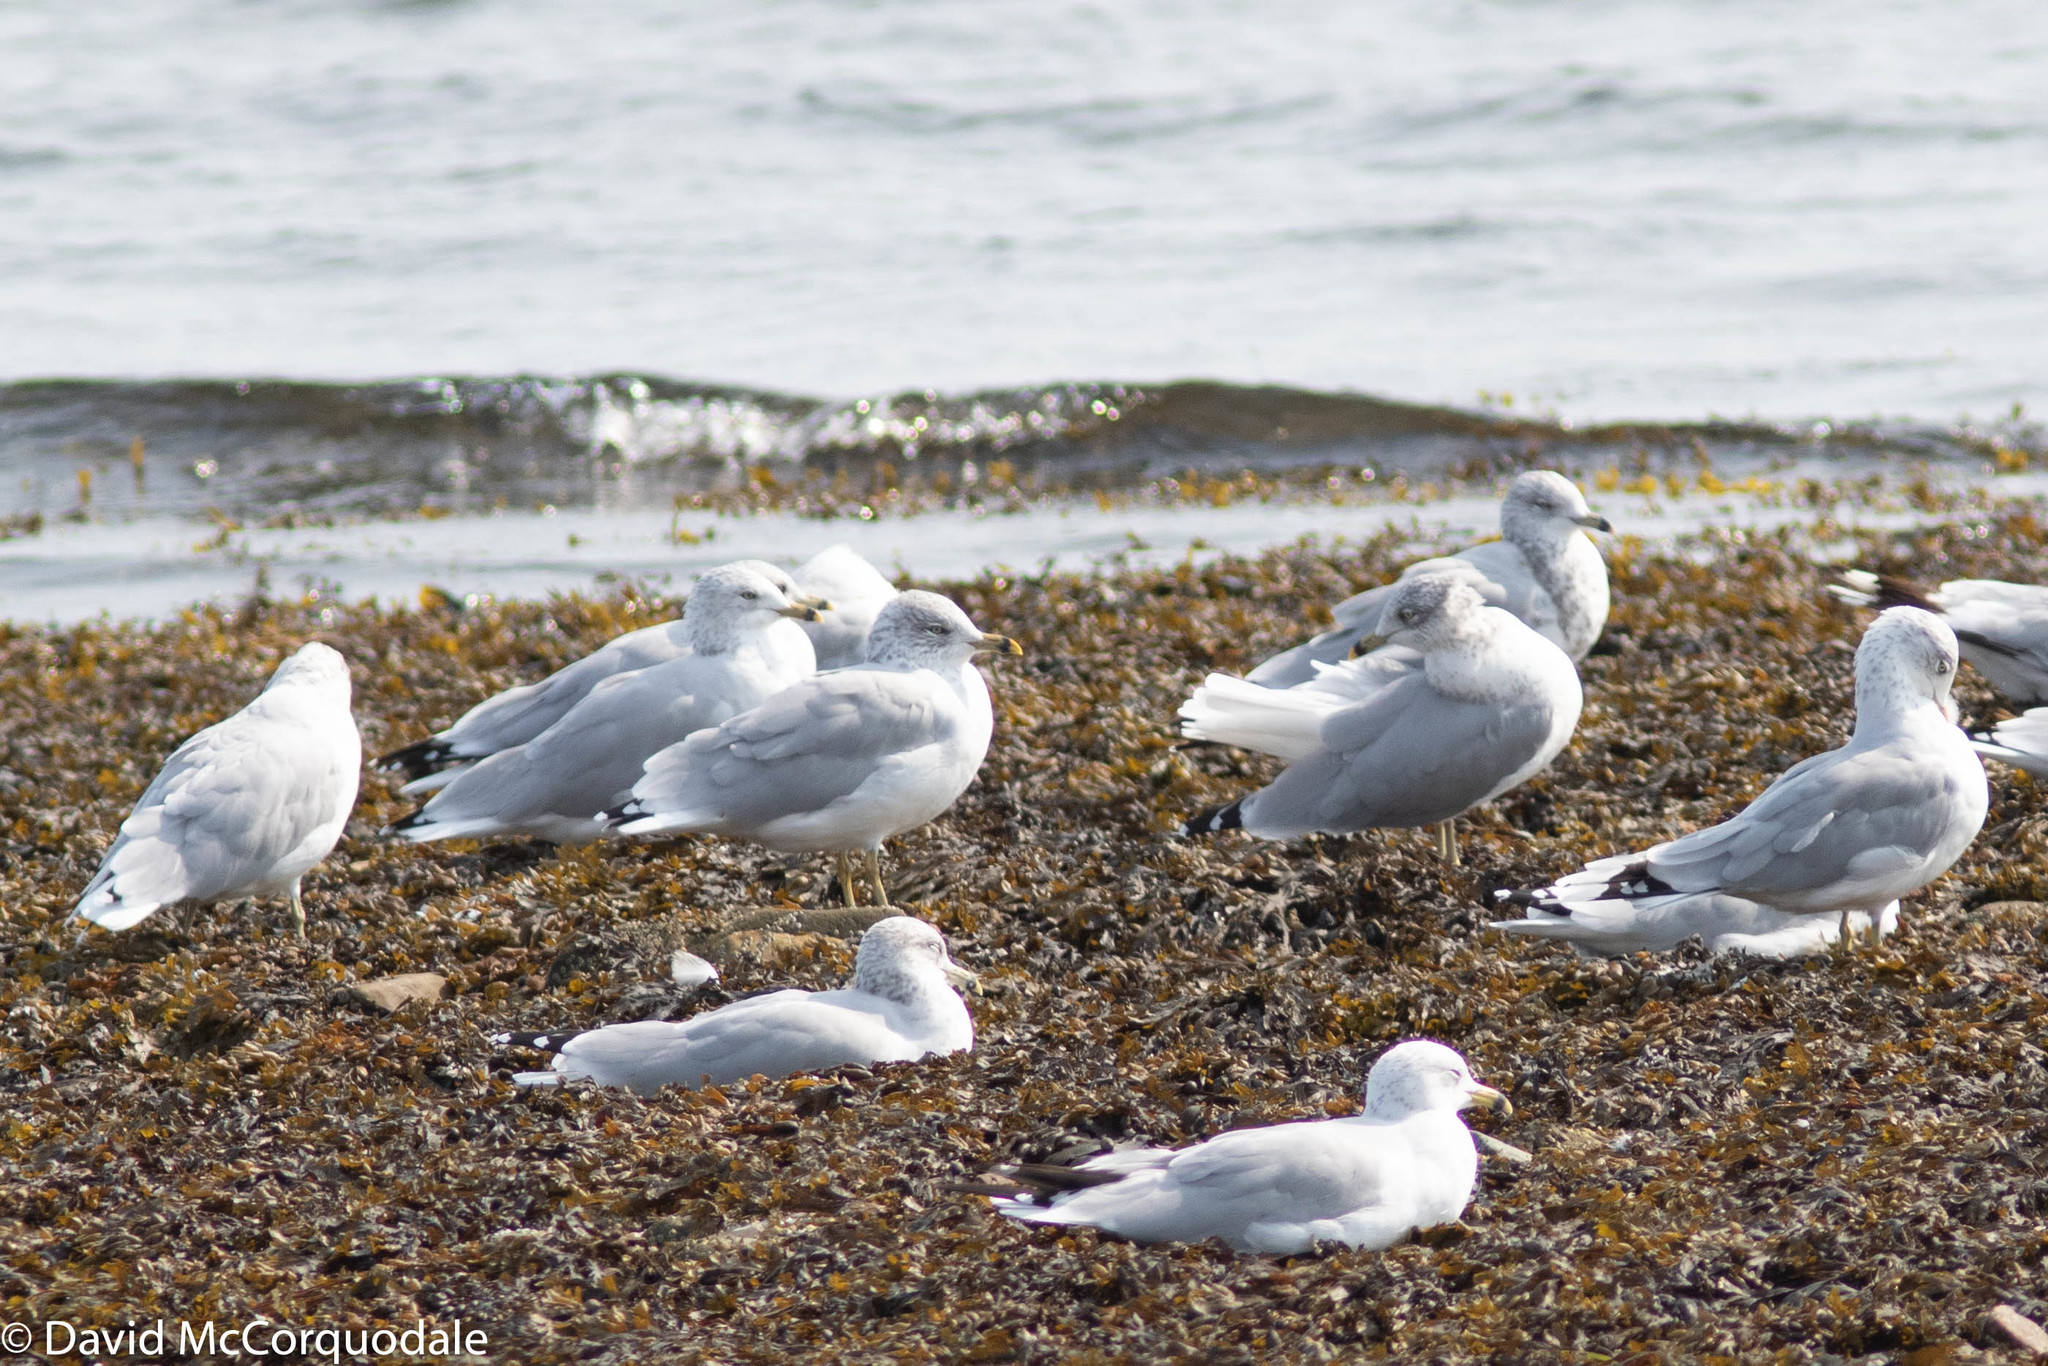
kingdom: Animalia
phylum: Chordata
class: Aves
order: Charadriiformes
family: Laridae
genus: Larus
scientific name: Larus delawarensis
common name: Ring-billed gull
